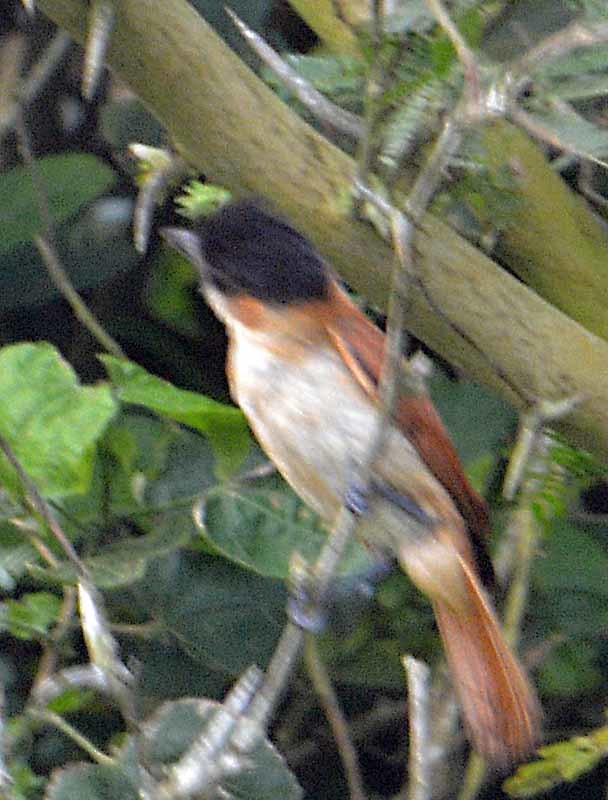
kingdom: Animalia
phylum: Chordata
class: Aves
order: Passeriformes
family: Cotingidae
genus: Pachyramphus
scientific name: Pachyramphus aglaiae
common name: Rose-throated becard
